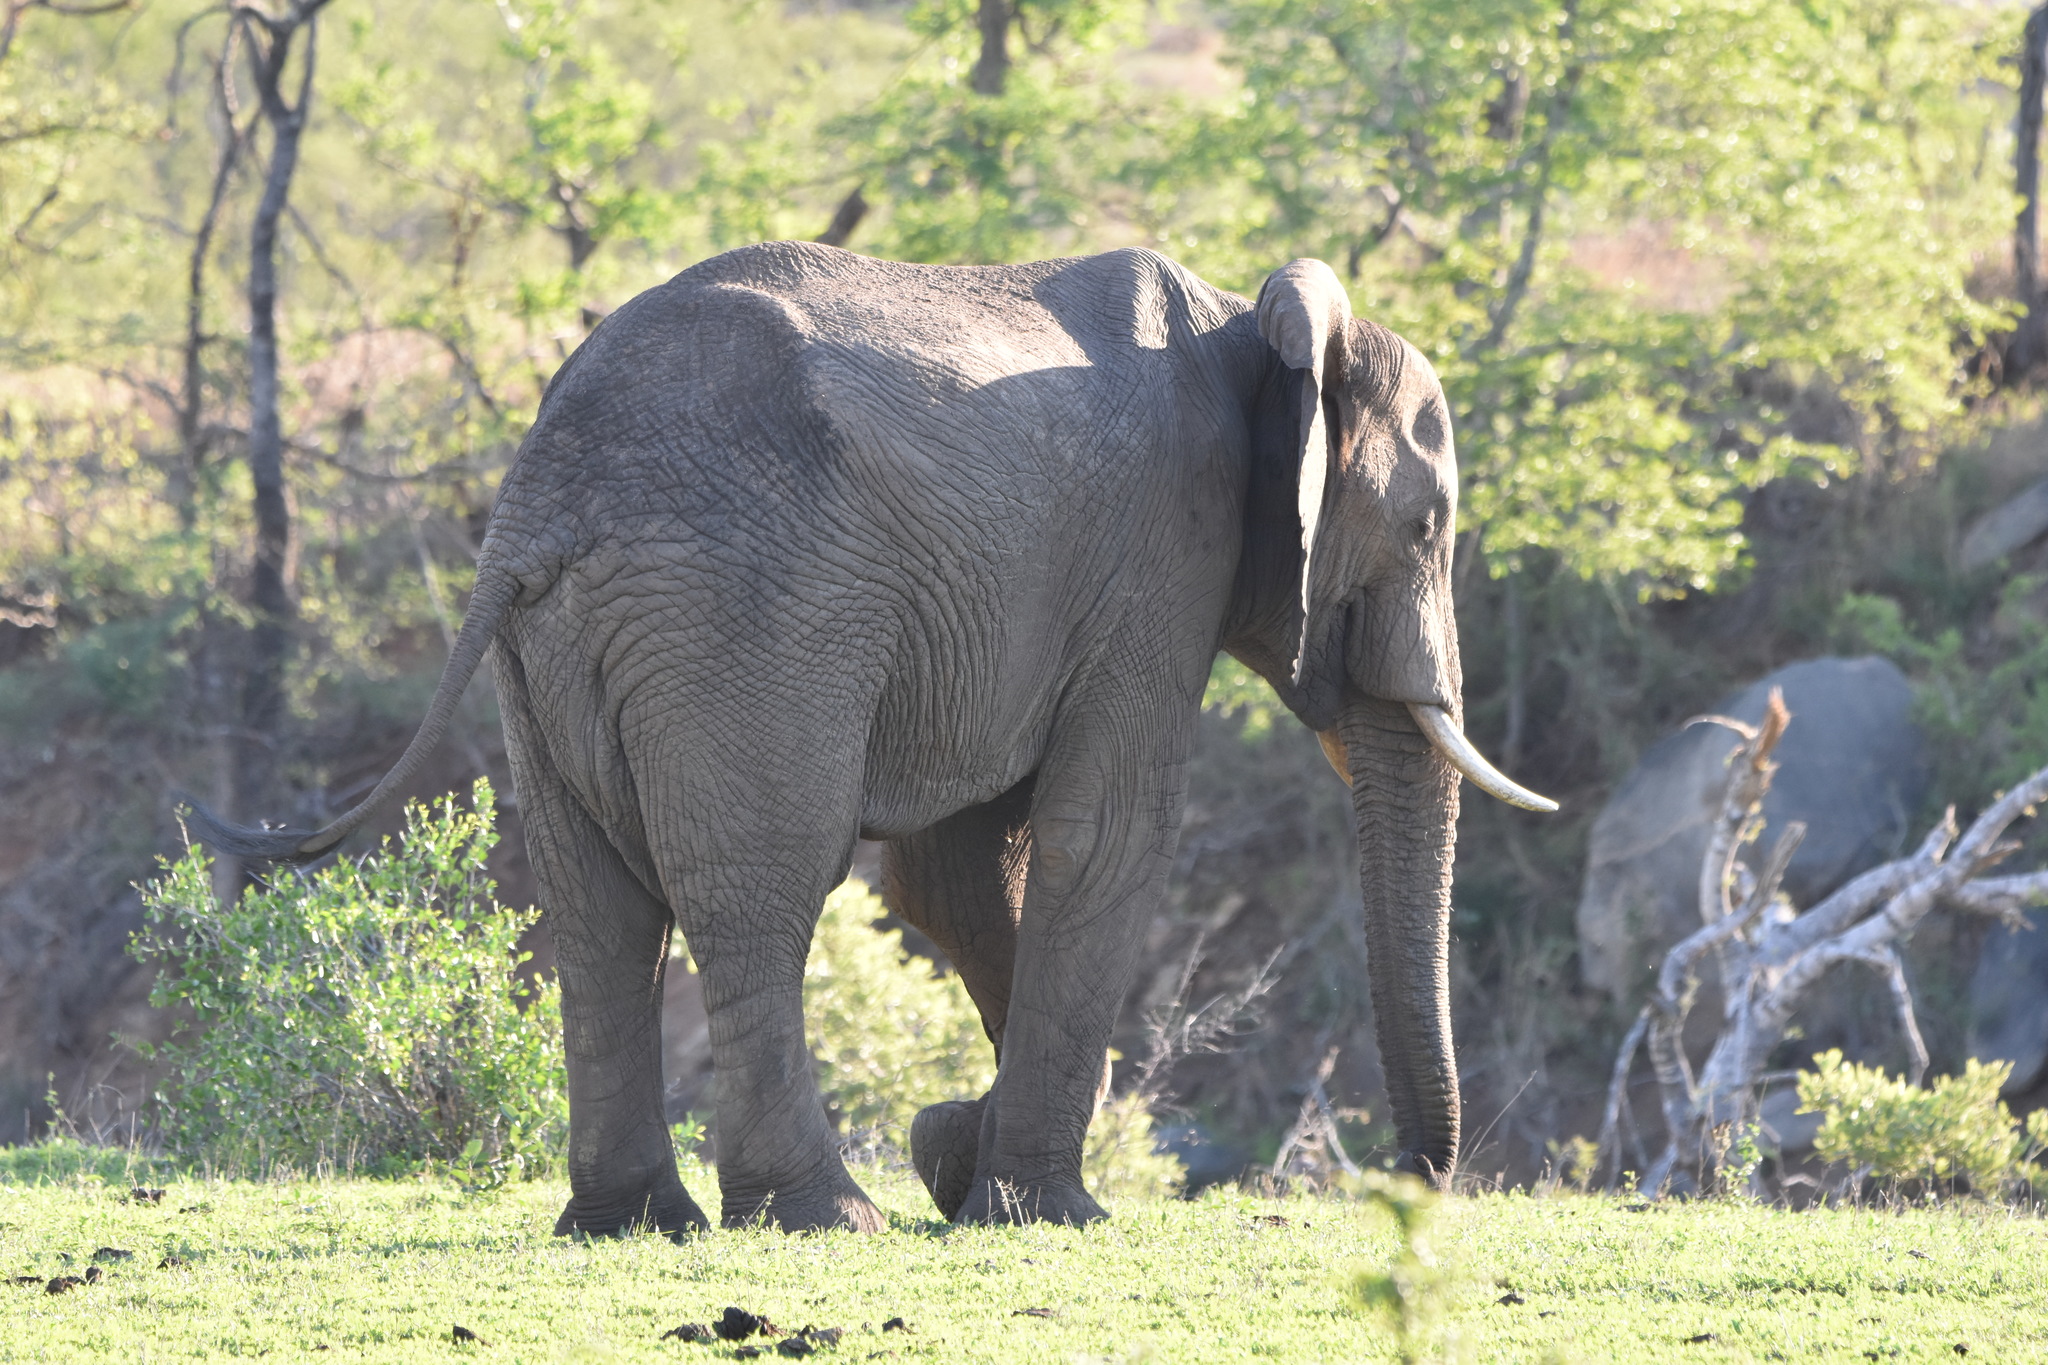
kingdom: Animalia
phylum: Chordata
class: Mammalia
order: Proboscidea
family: Elephantidae
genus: Loxodonta
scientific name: Loxodonta africana
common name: African elephant
